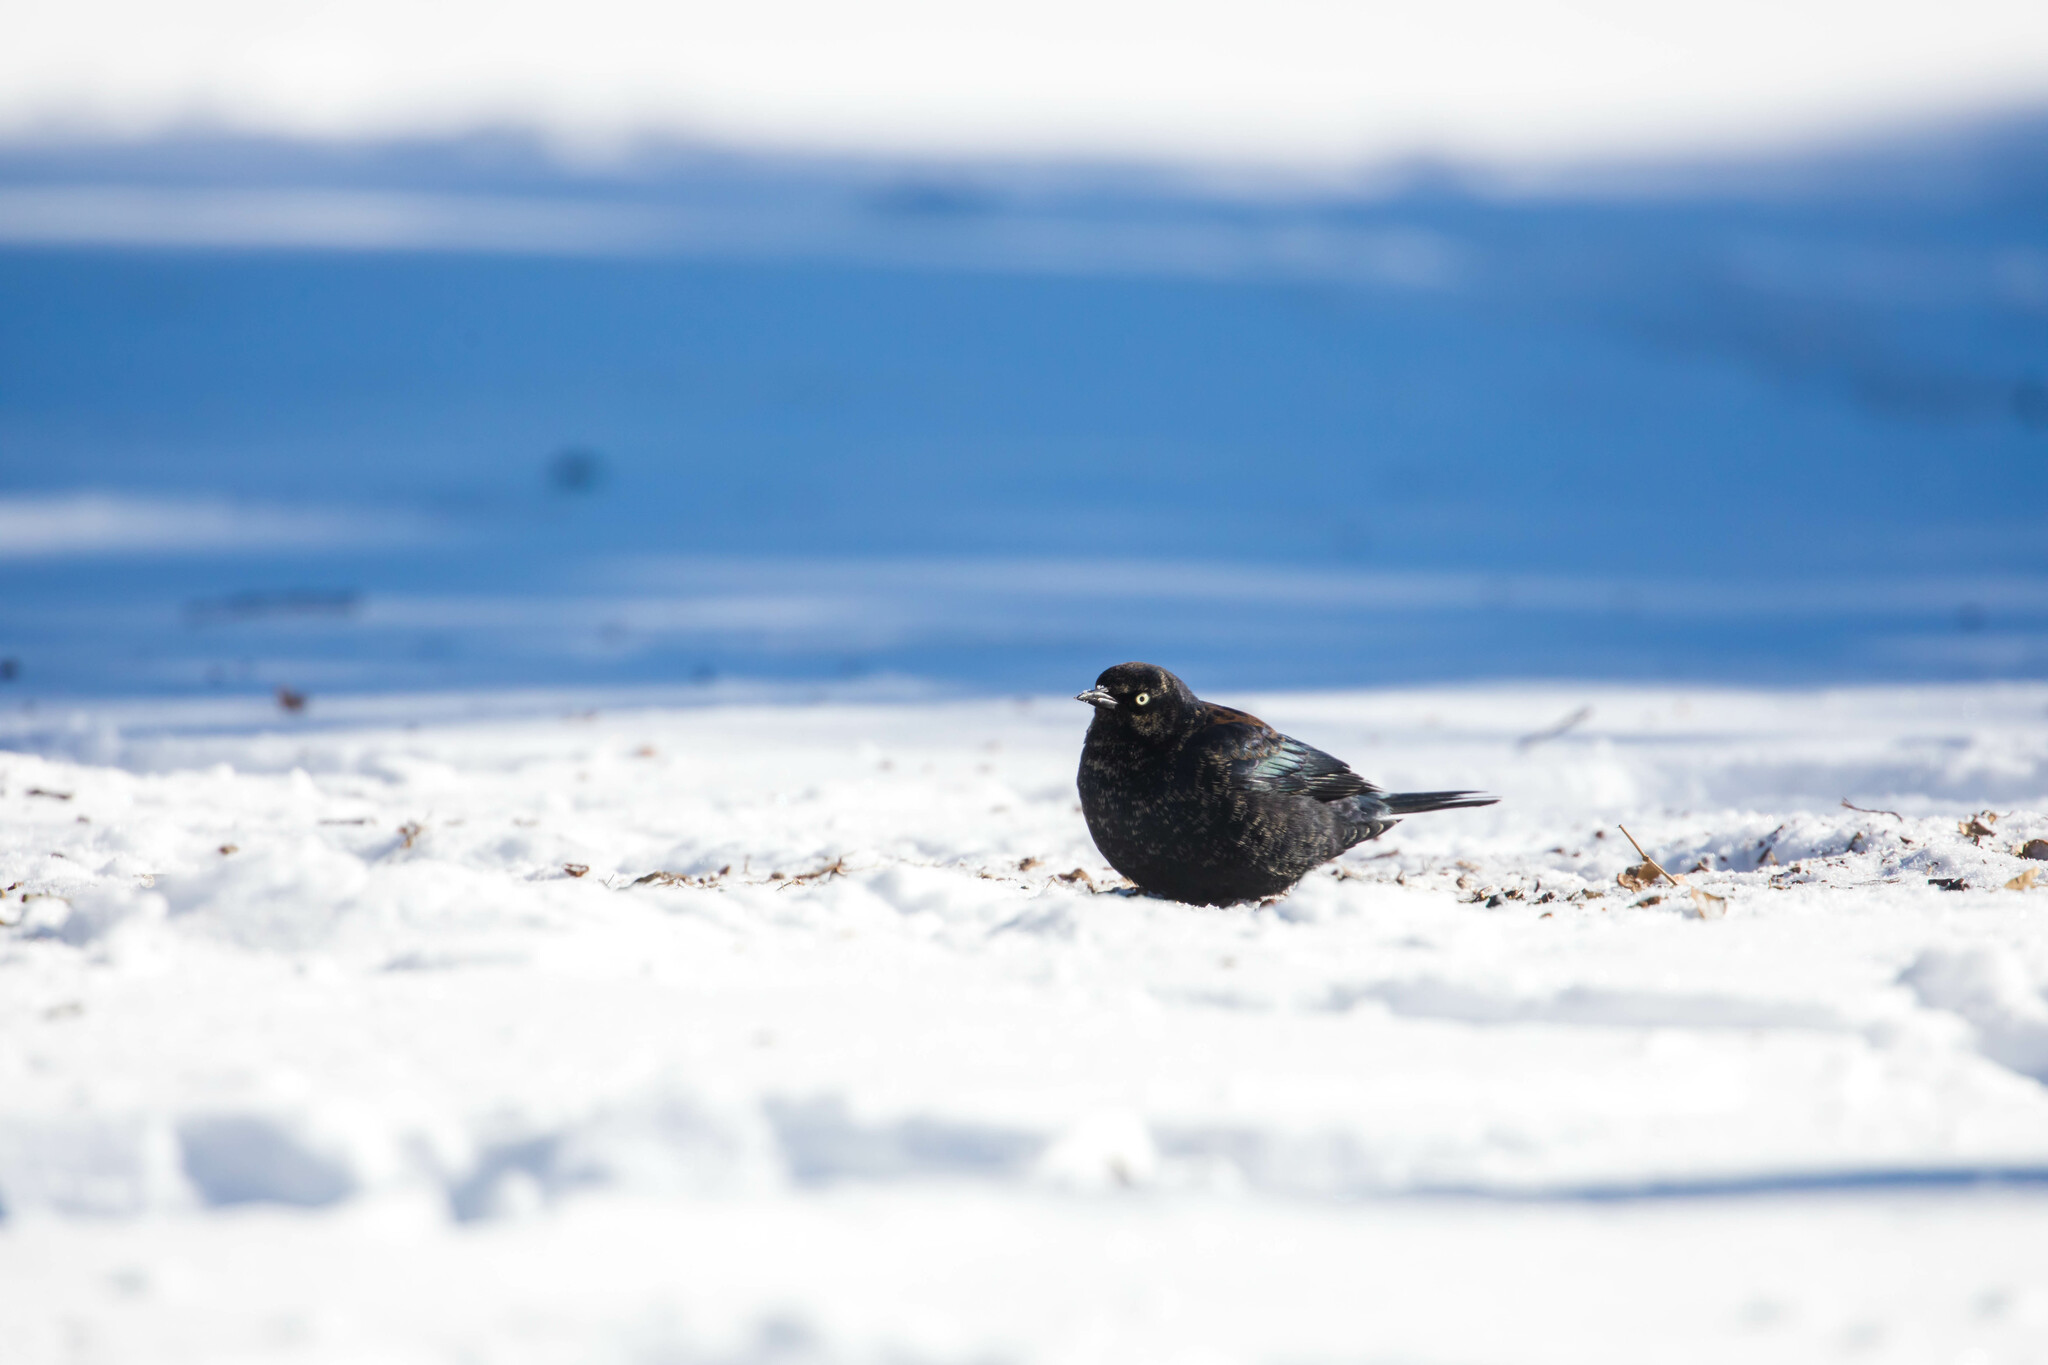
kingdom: Animalia
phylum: Chordata
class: Aves
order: Passeriformes
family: Icteridae
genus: Euphagus
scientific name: Euphagus carolinus
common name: Rusty blackbird
